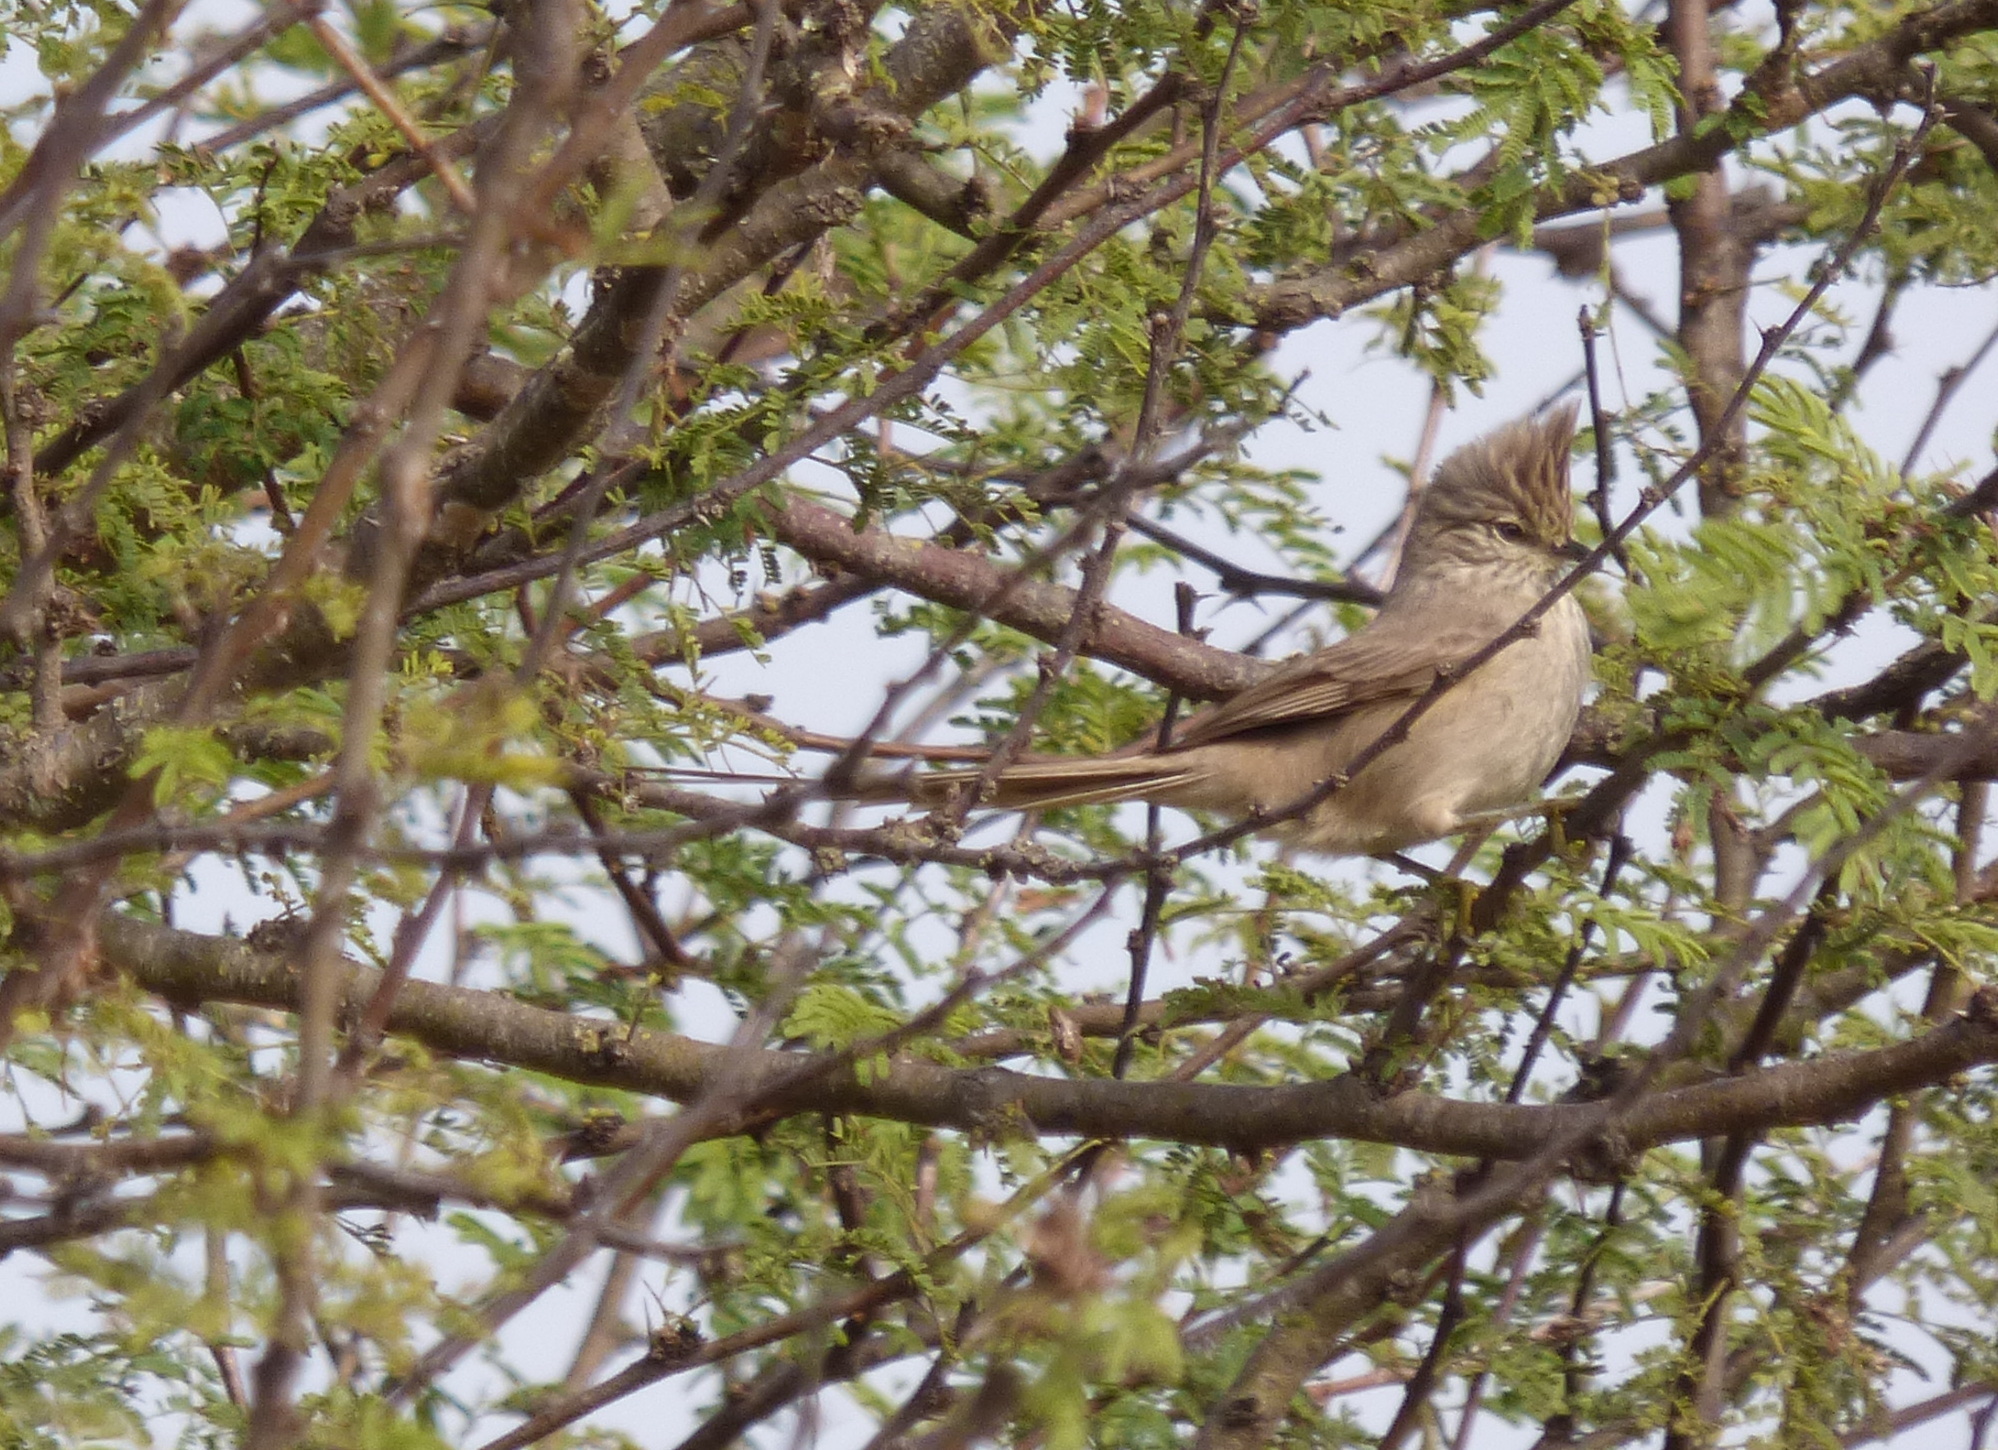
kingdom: Animalia
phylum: Chordata
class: Aves
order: Passeriformes
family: Furnariidae
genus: Leptasthenura
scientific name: Leptasthenura platensis
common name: Tufted tit-spinetail
